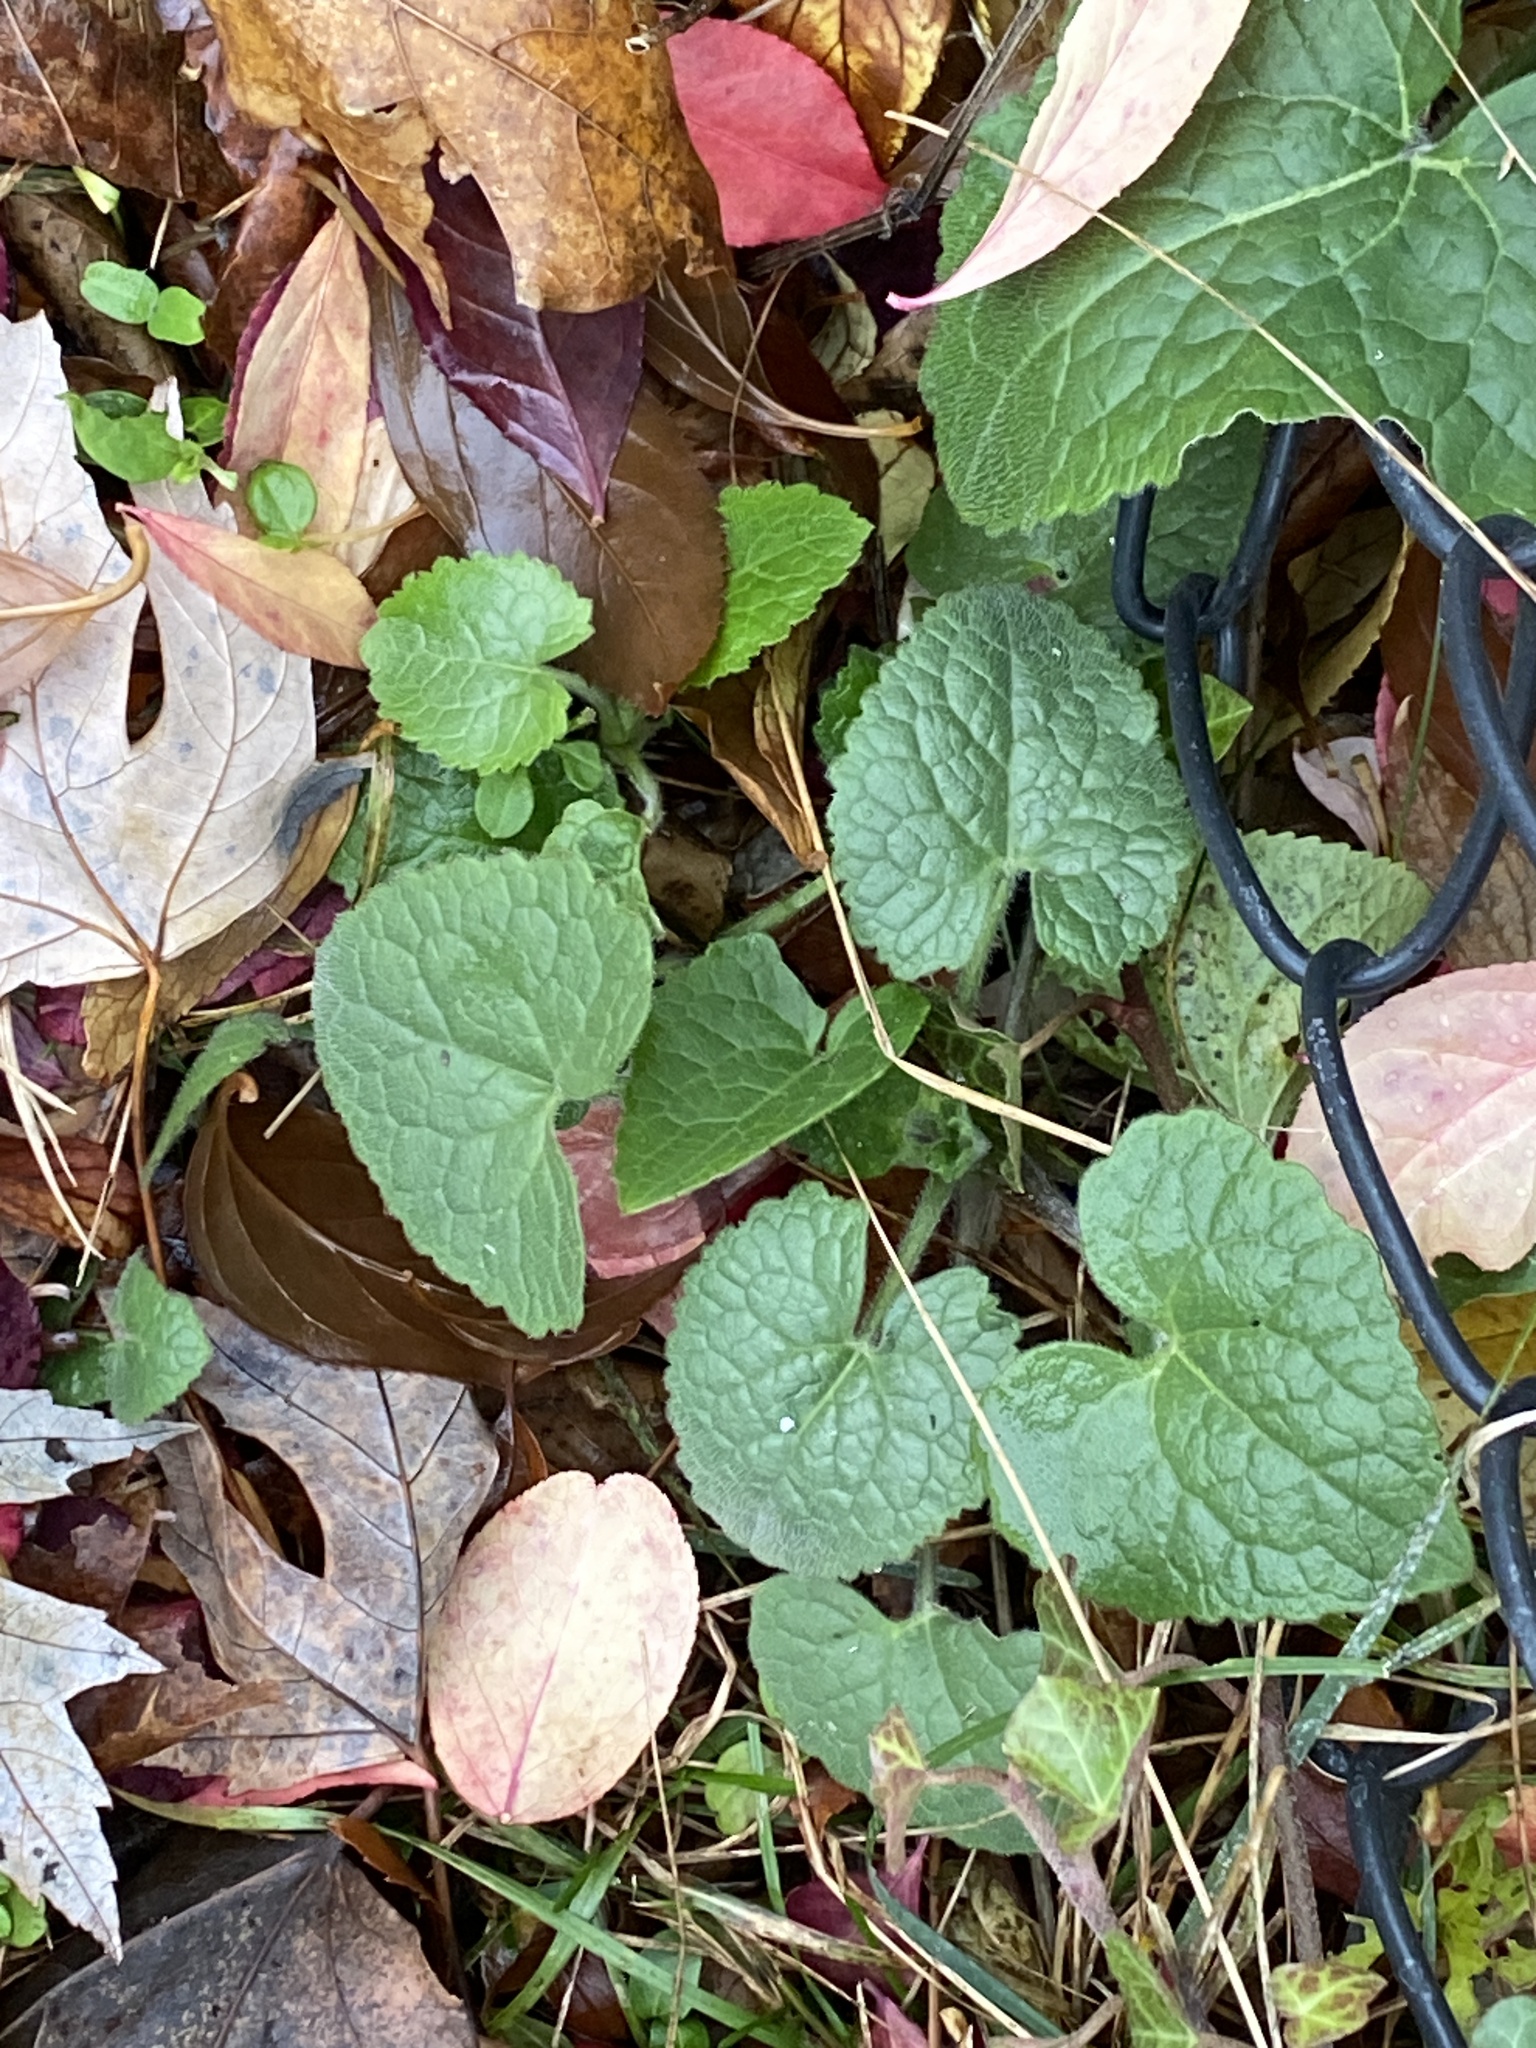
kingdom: Plantae
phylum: Tracheophyta
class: Magnoliopsida
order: Brassicales
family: Brassicaceae
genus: Lunaria
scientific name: Lunaria annua
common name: Honesty
